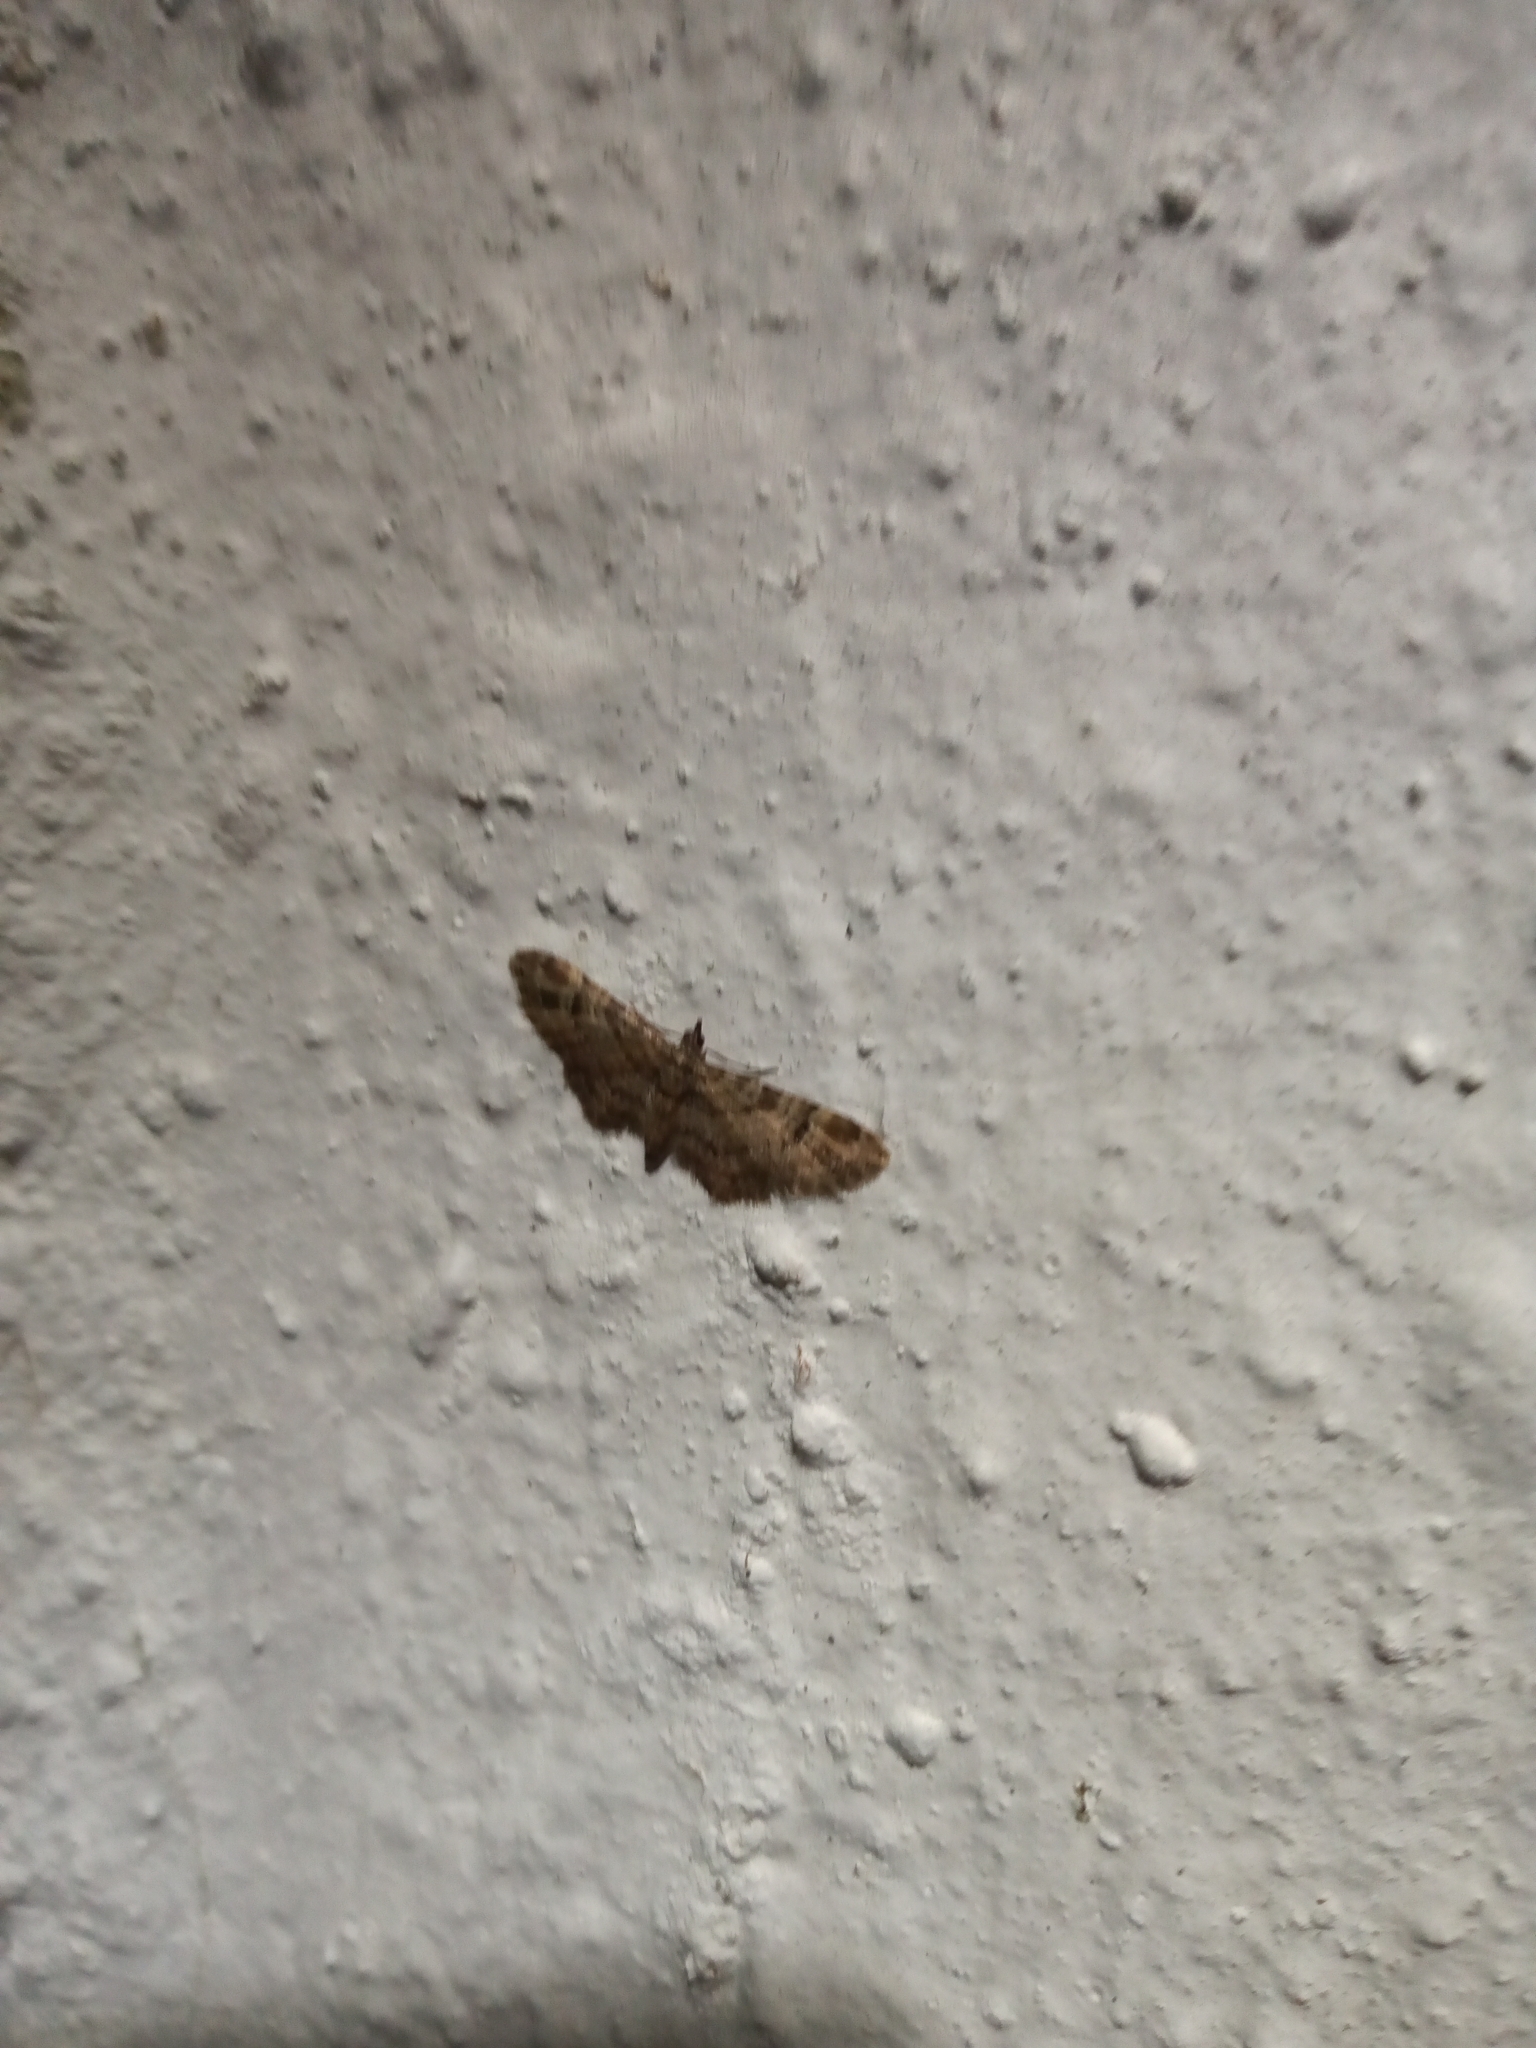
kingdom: Animalia
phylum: Arthropoda
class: Insecta
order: Lepidoptera
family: Geometridae
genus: Gymnoscelis
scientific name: Gymnoscelis rufifasciata
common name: Double-striped pug
